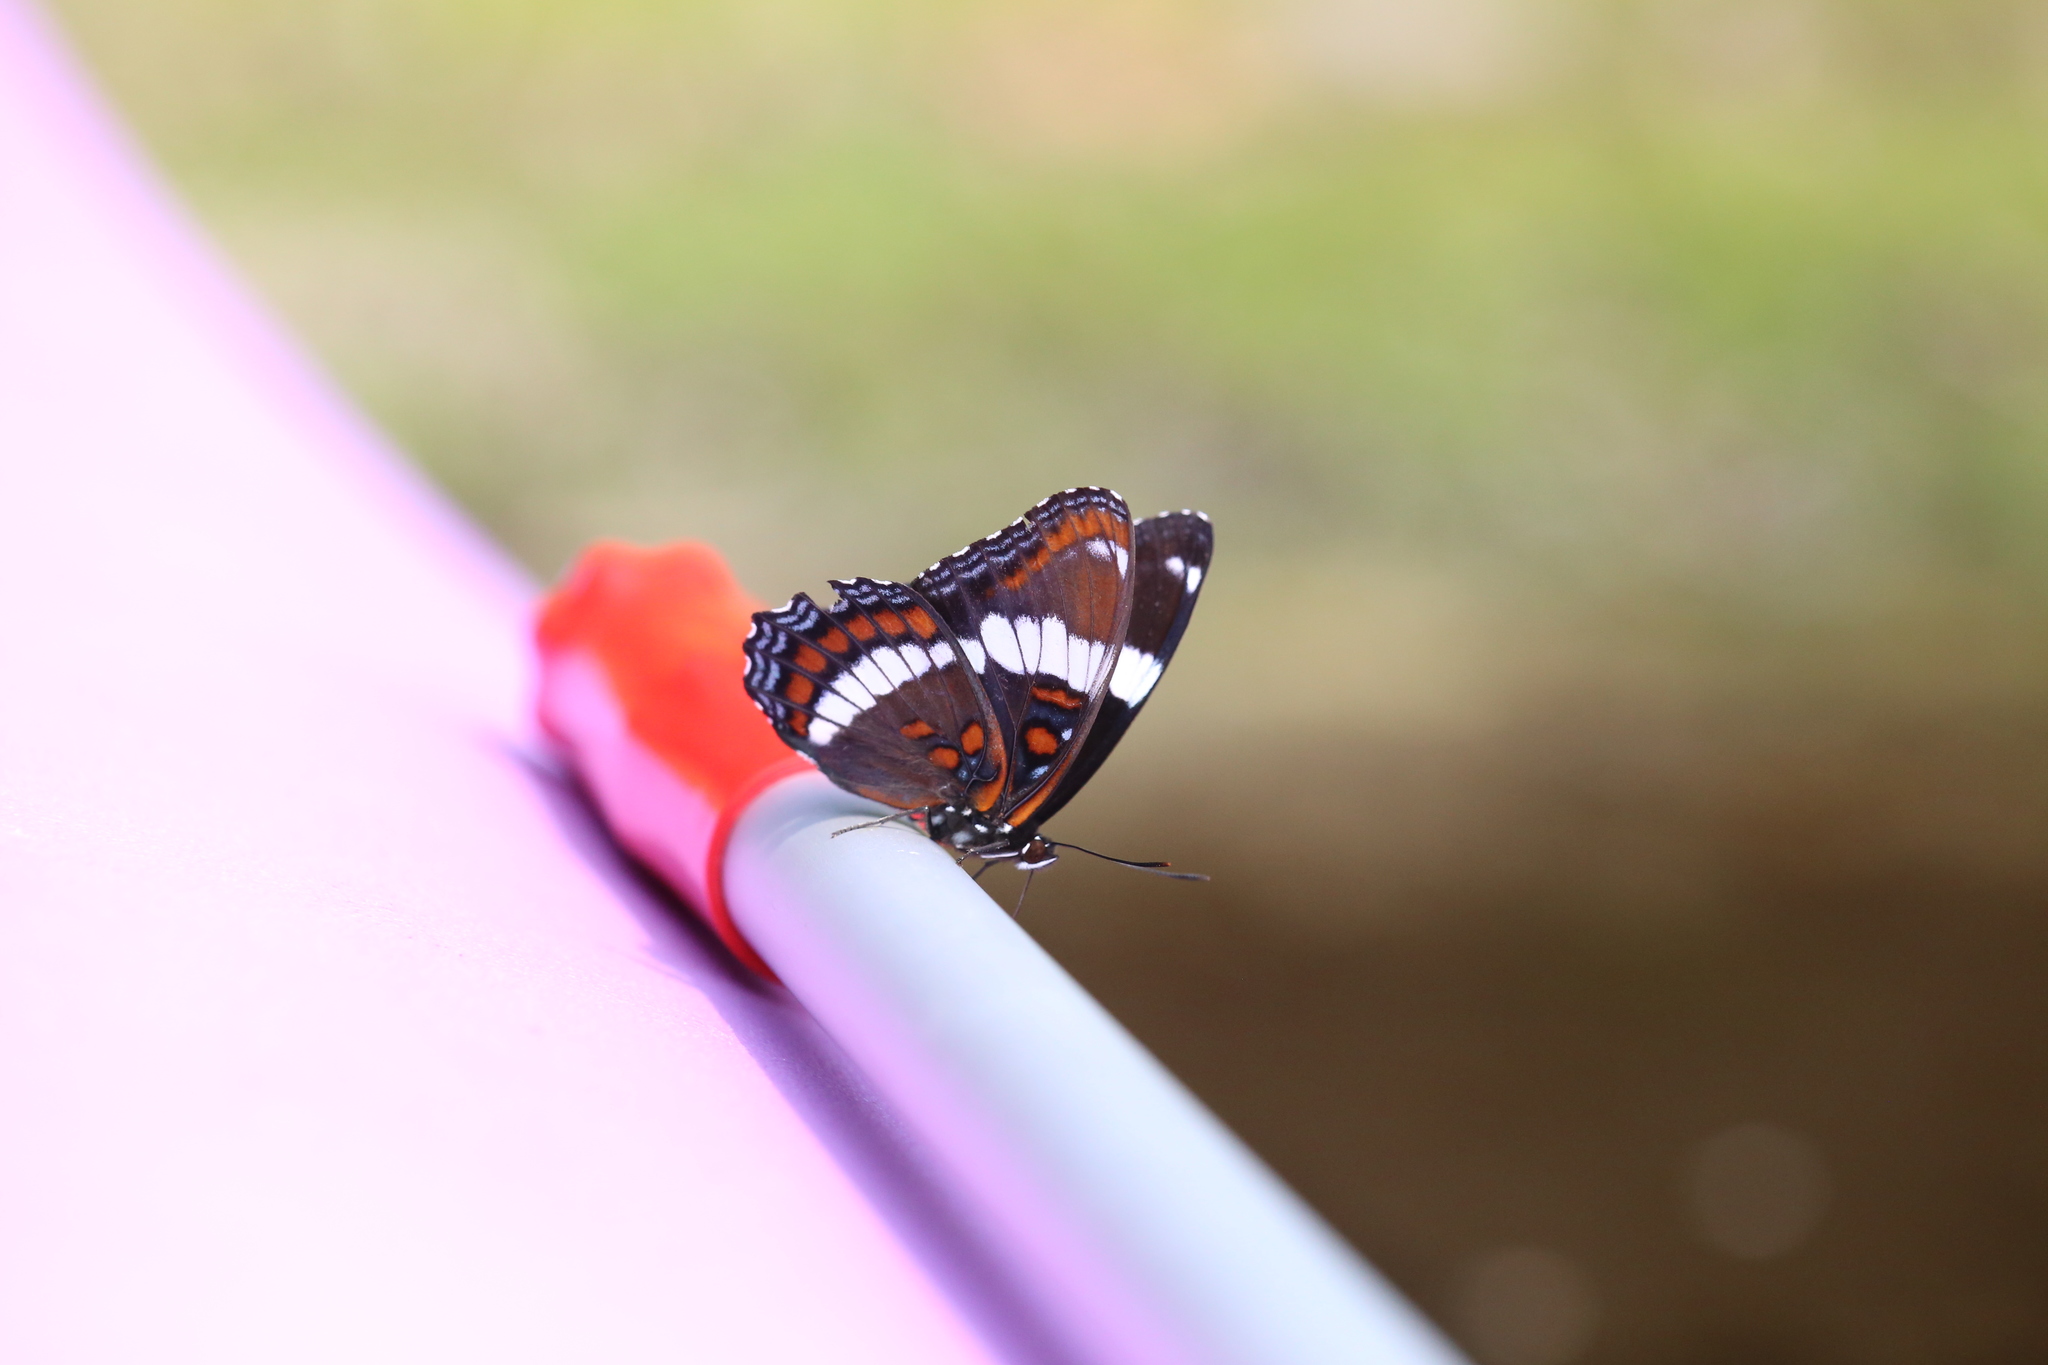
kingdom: Animalia
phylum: Arthropoda
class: Insecta
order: Lepidoptera
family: Nymphalidae
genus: Limenitis
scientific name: Limenitis arthemis
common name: Red-spotted admiral
